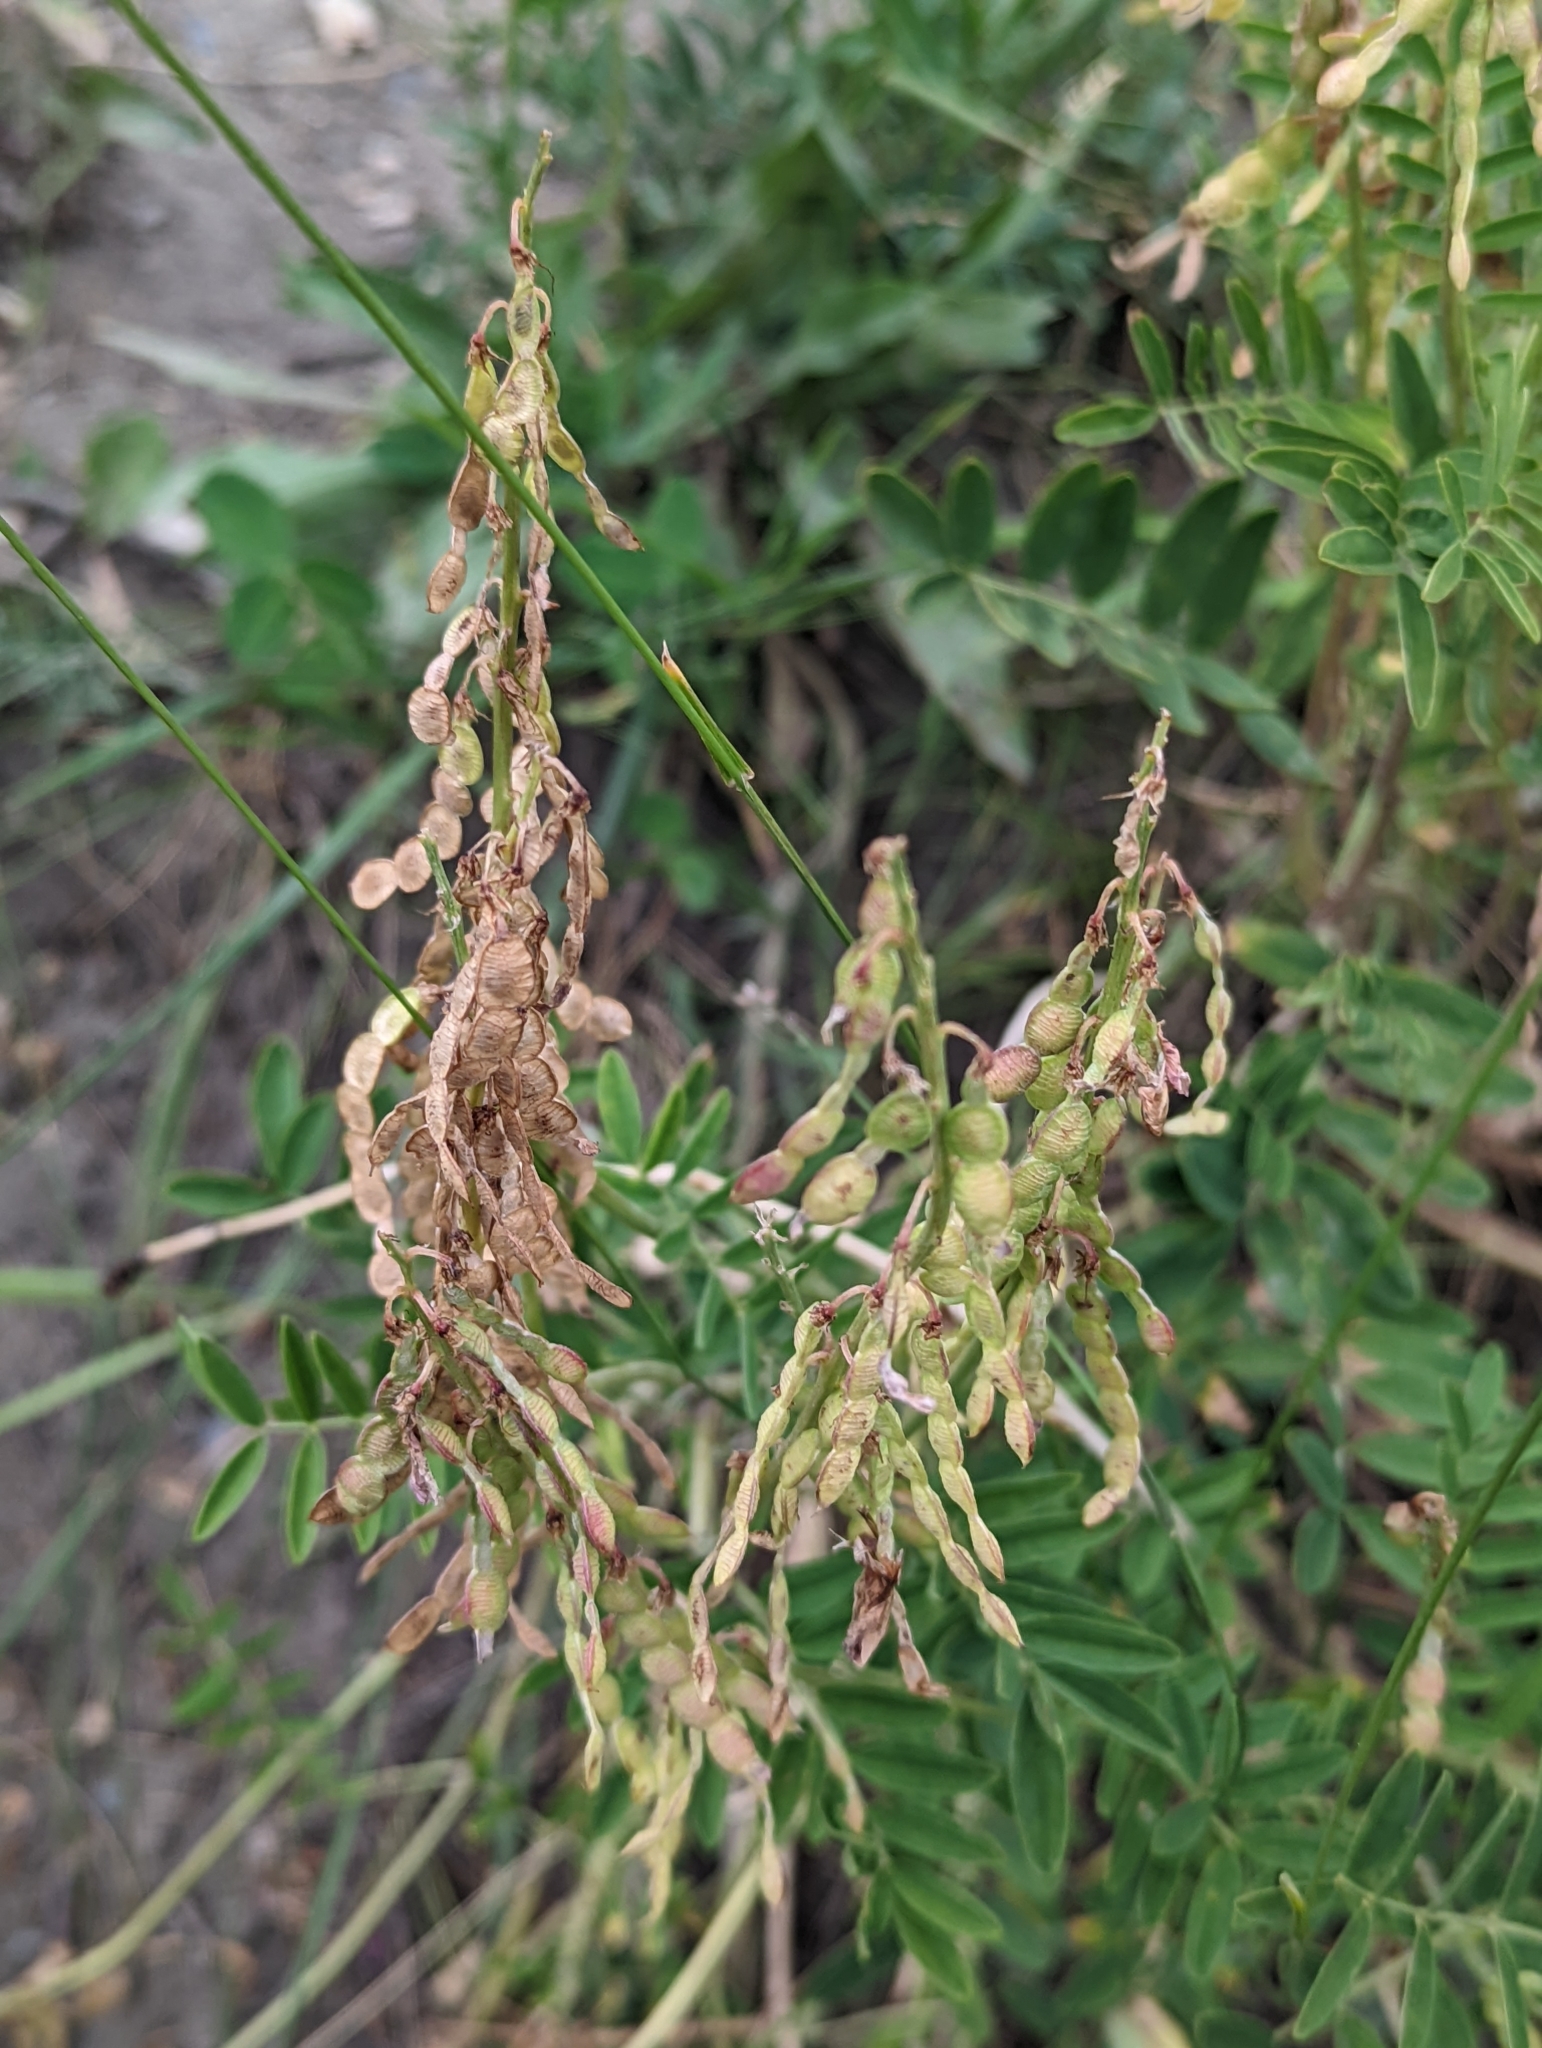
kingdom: Plantae
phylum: Tracheophyta
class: Magnoliopsida
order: Fabales
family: Fabaceae
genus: Hedysarum
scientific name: Hedysarum boreale
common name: Northern sweet-vetch
